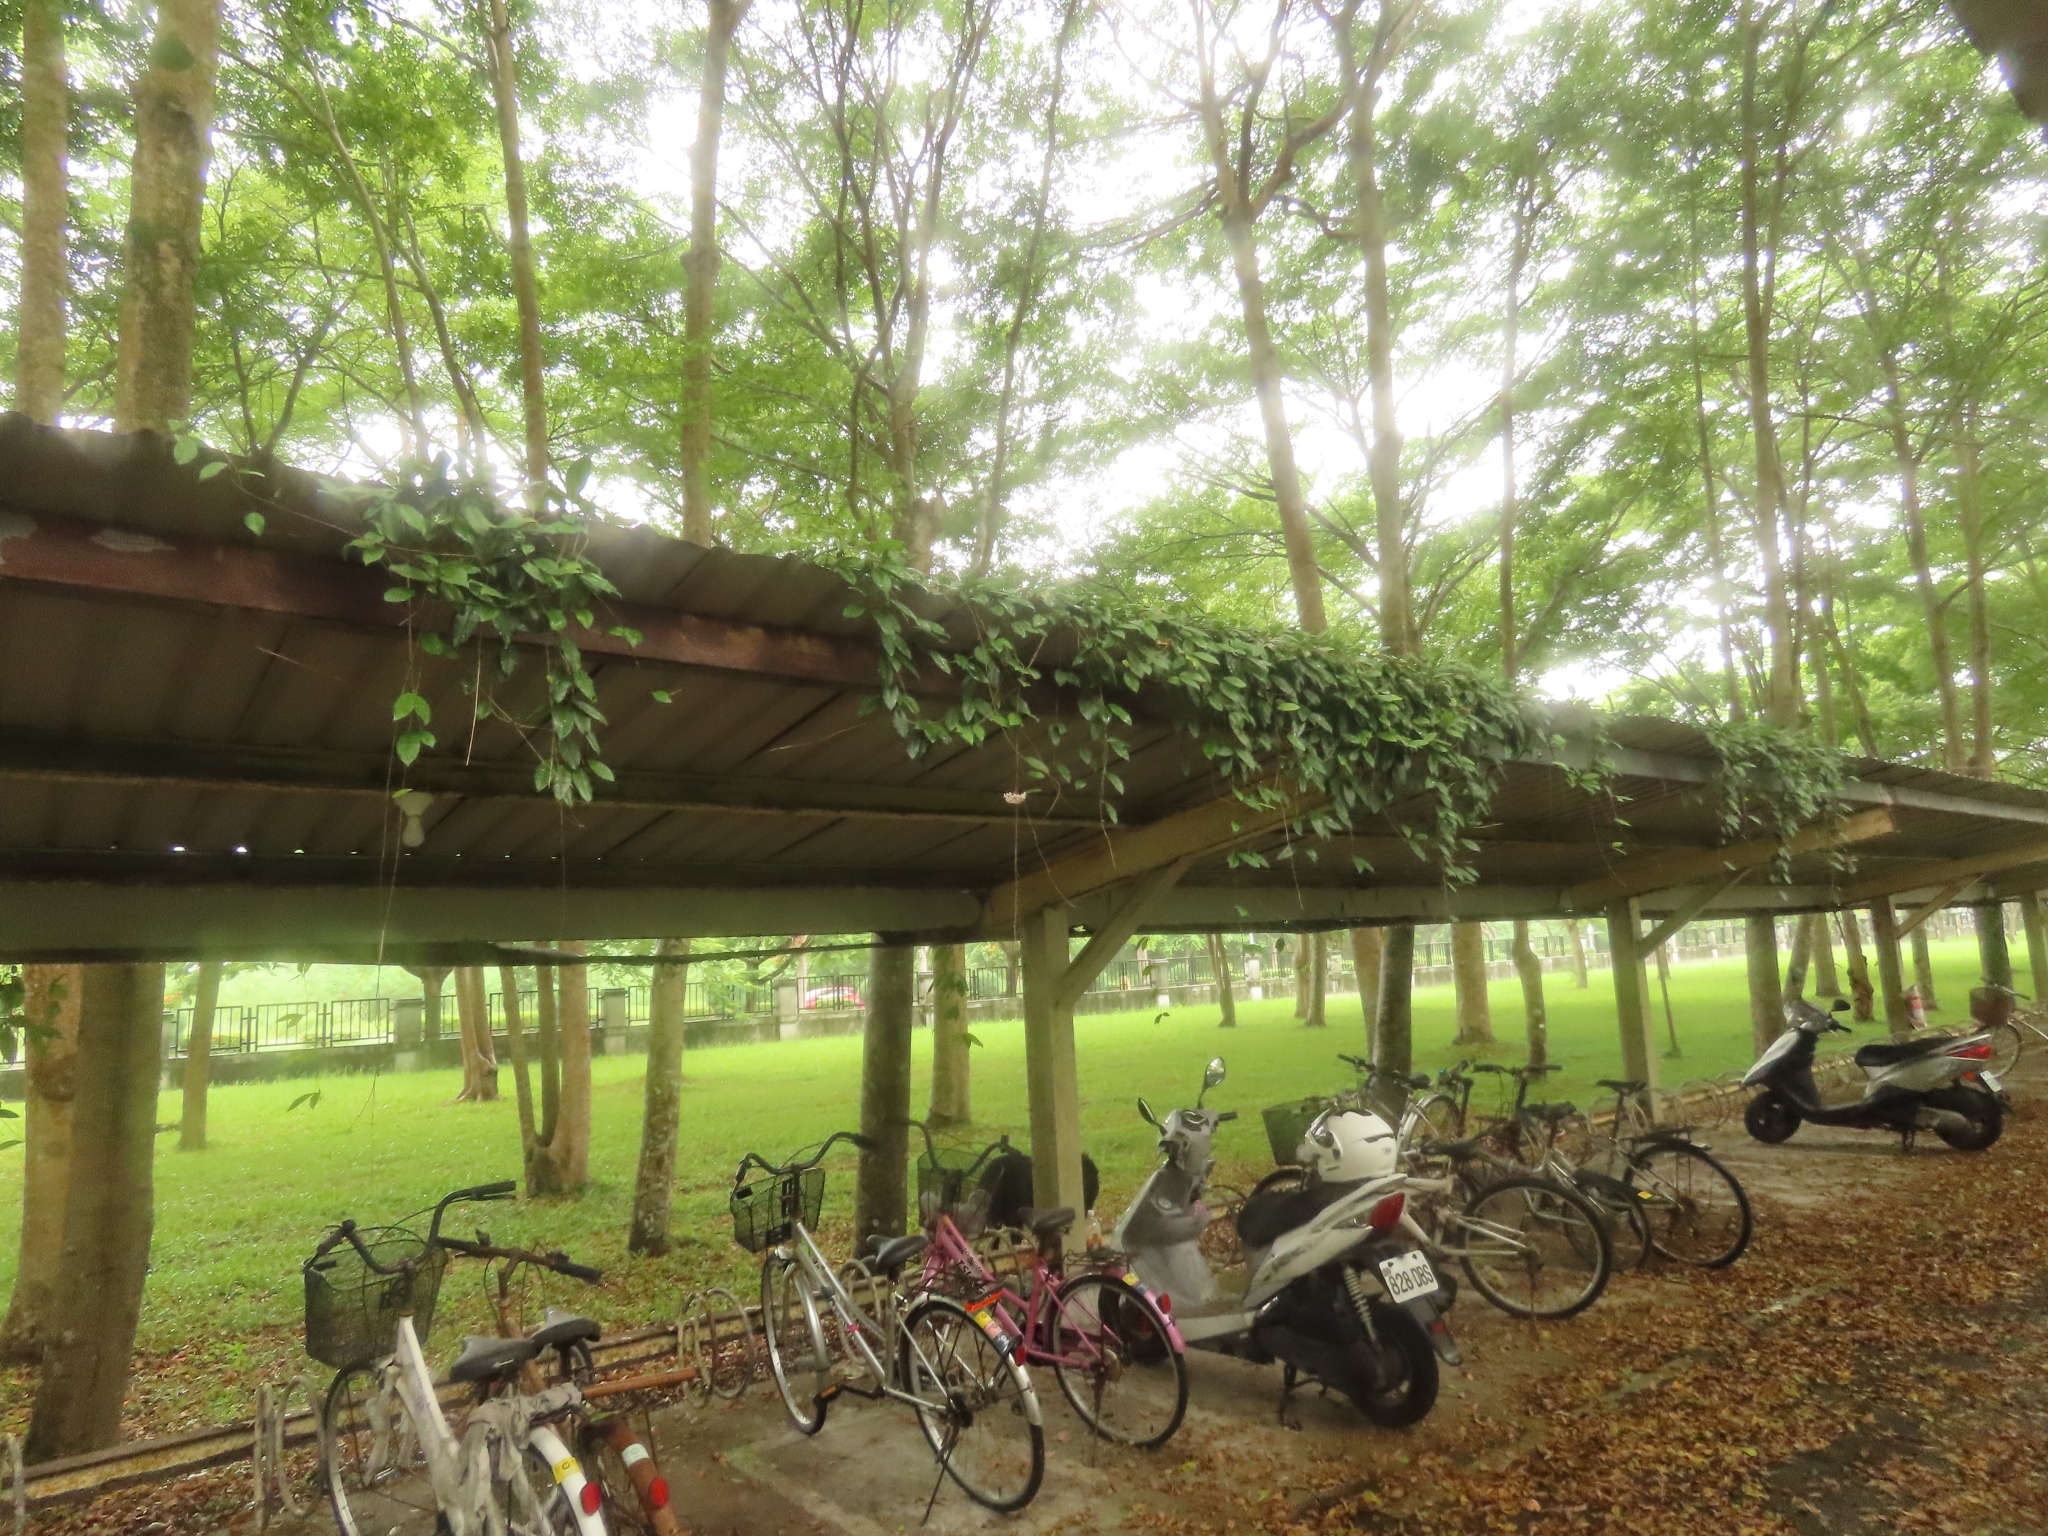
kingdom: Plantae
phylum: Tracheophyta
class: Magnoliopsida
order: Gentianales
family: Apocynaceae
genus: Hoya
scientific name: Hoya carnosa
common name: Honeyplant
